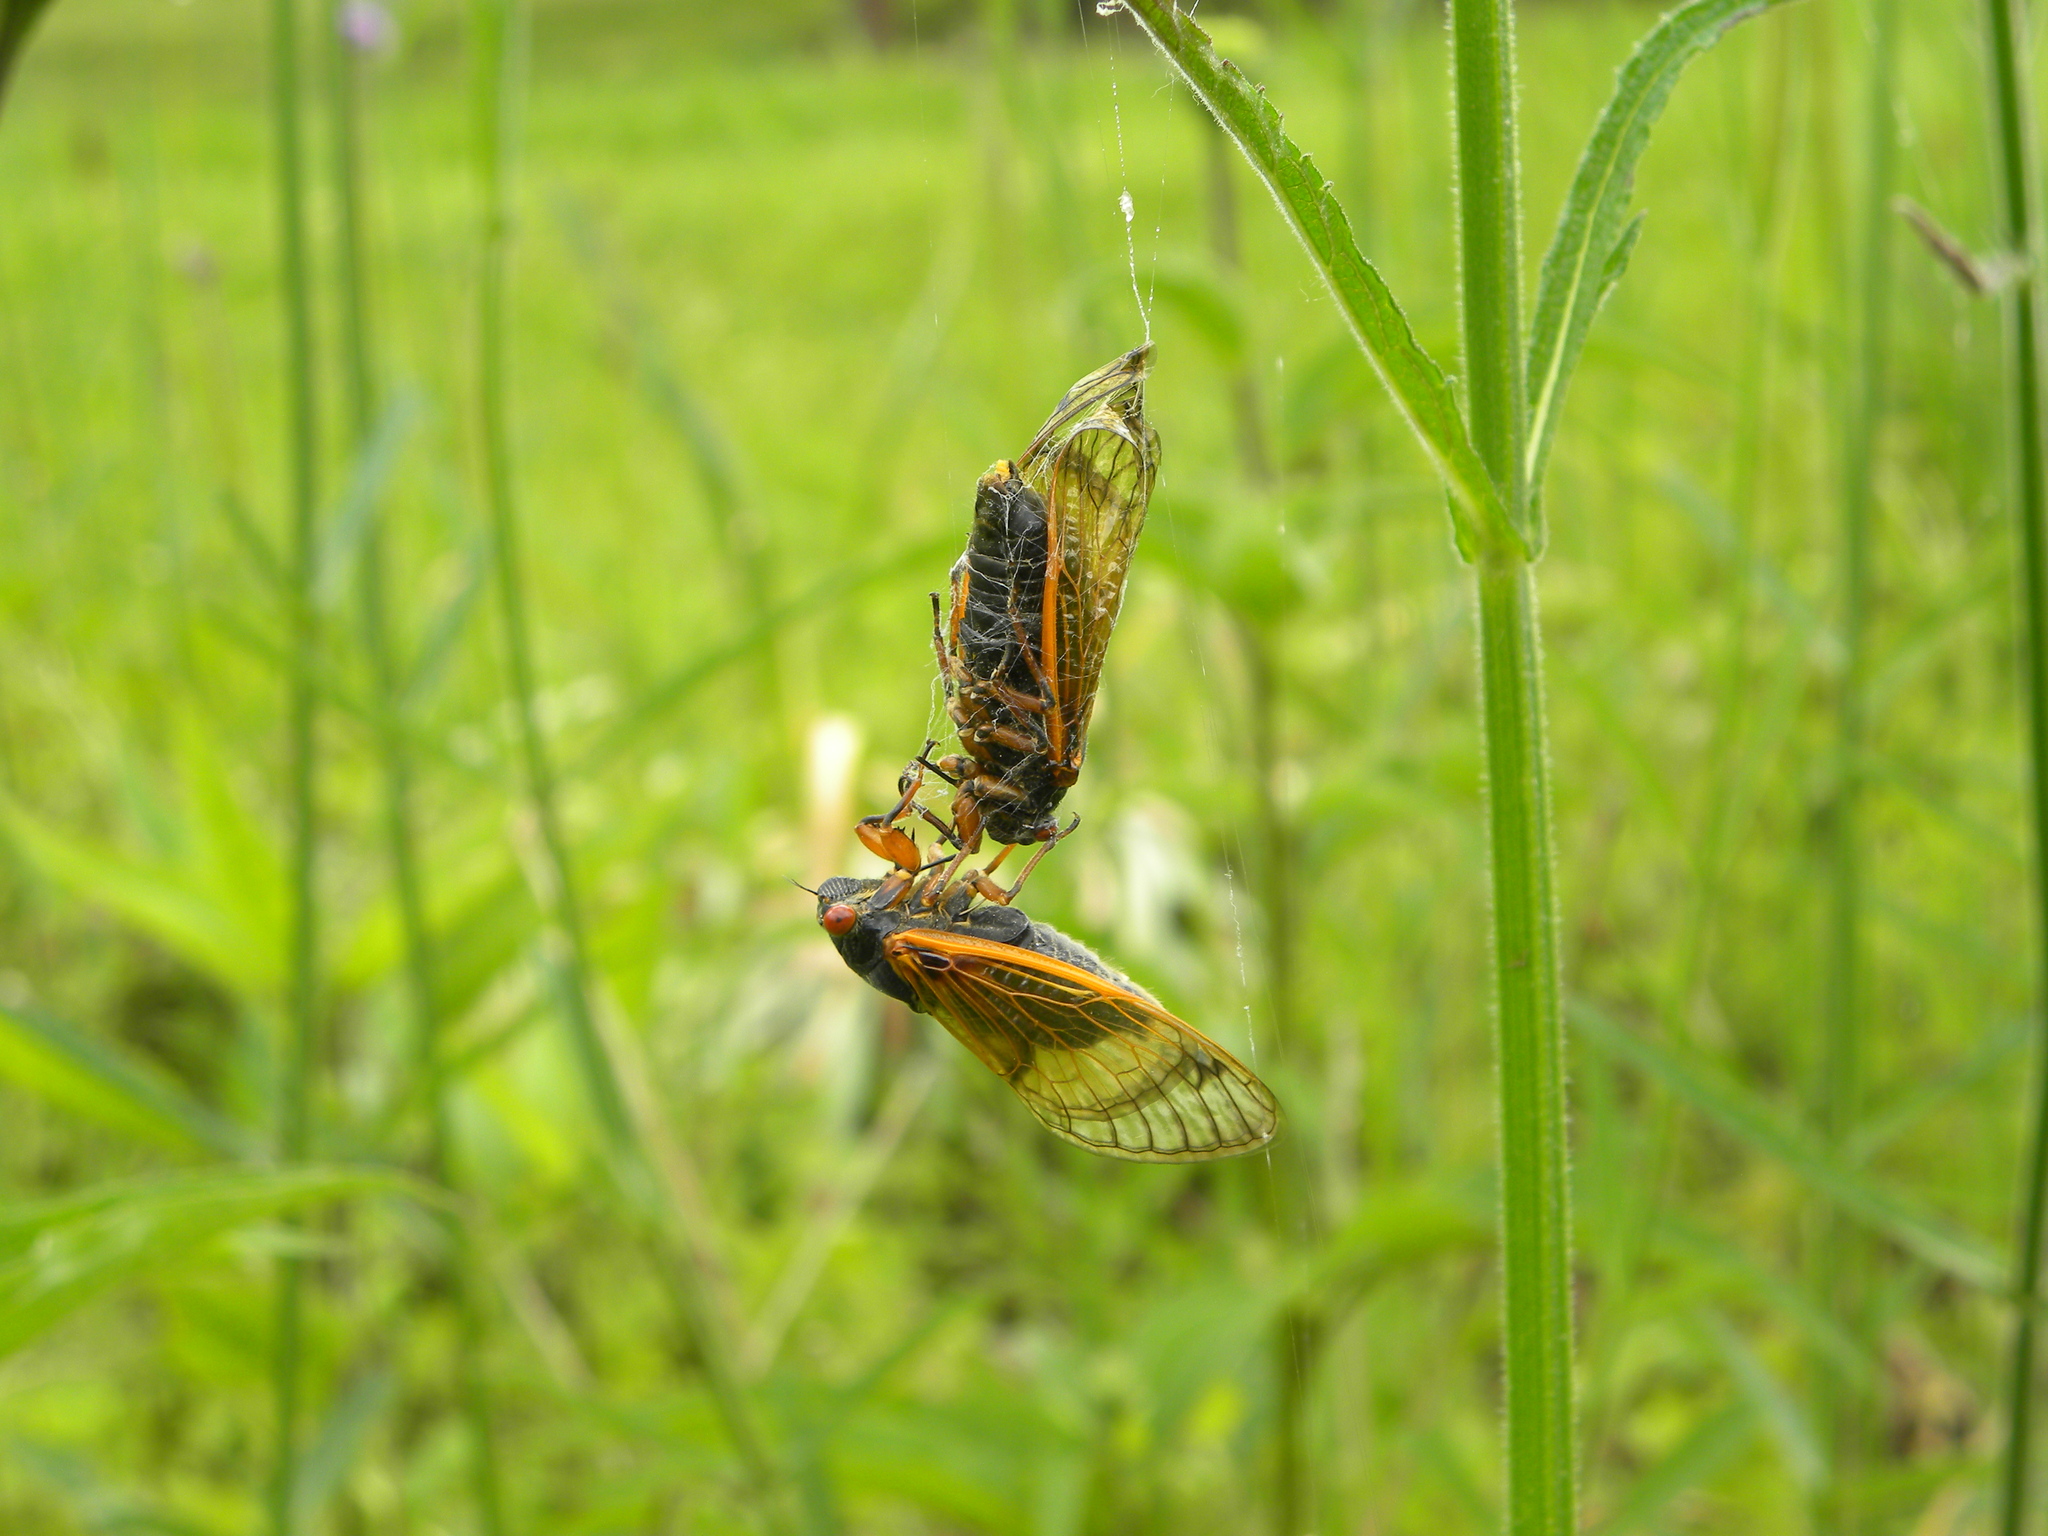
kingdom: Animalia
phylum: Arthropoda
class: Insecta
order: Hemiptera
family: Cicadidae
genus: Magicicada
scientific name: Magicicada cassini
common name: Cassin's 17-year cicada
